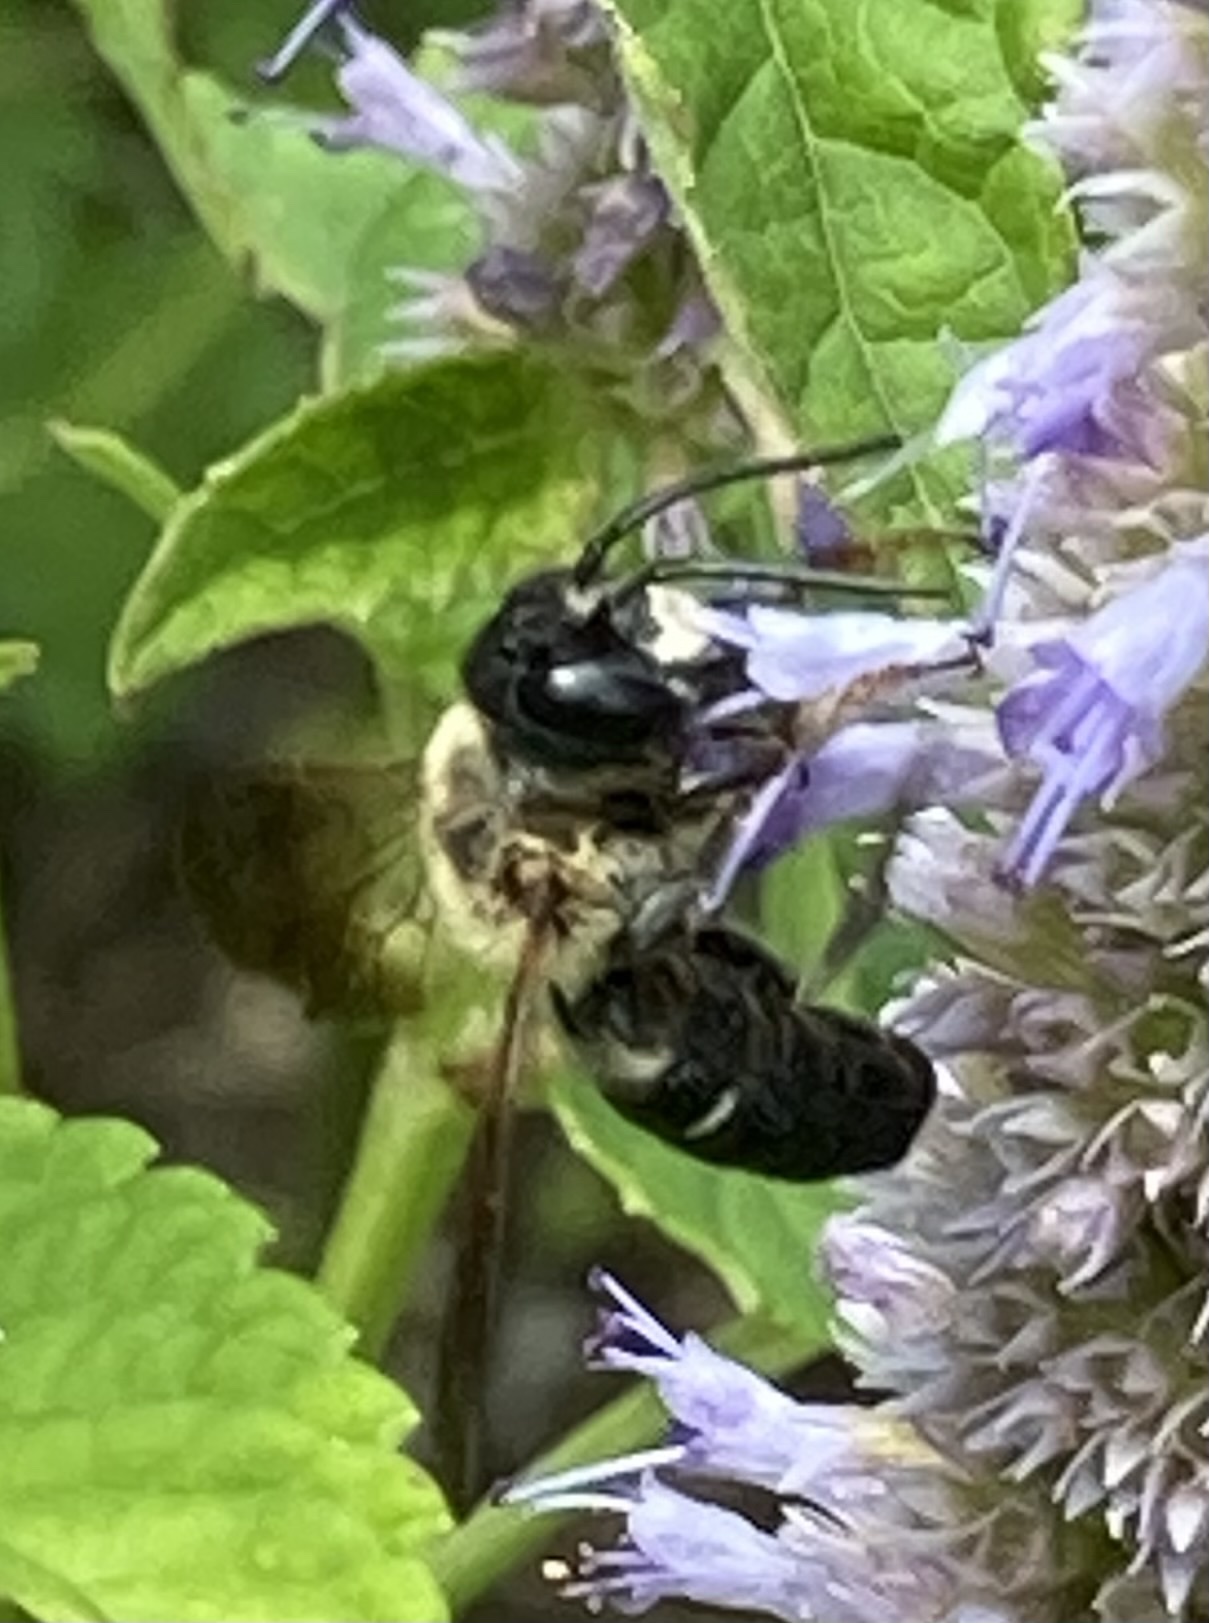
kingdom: Animalia
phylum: Arthropoda
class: Insecta
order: Hymenoptera
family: Megachilidae
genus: Megachile
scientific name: Megachile sculpturalis
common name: Sculptured resin bee
